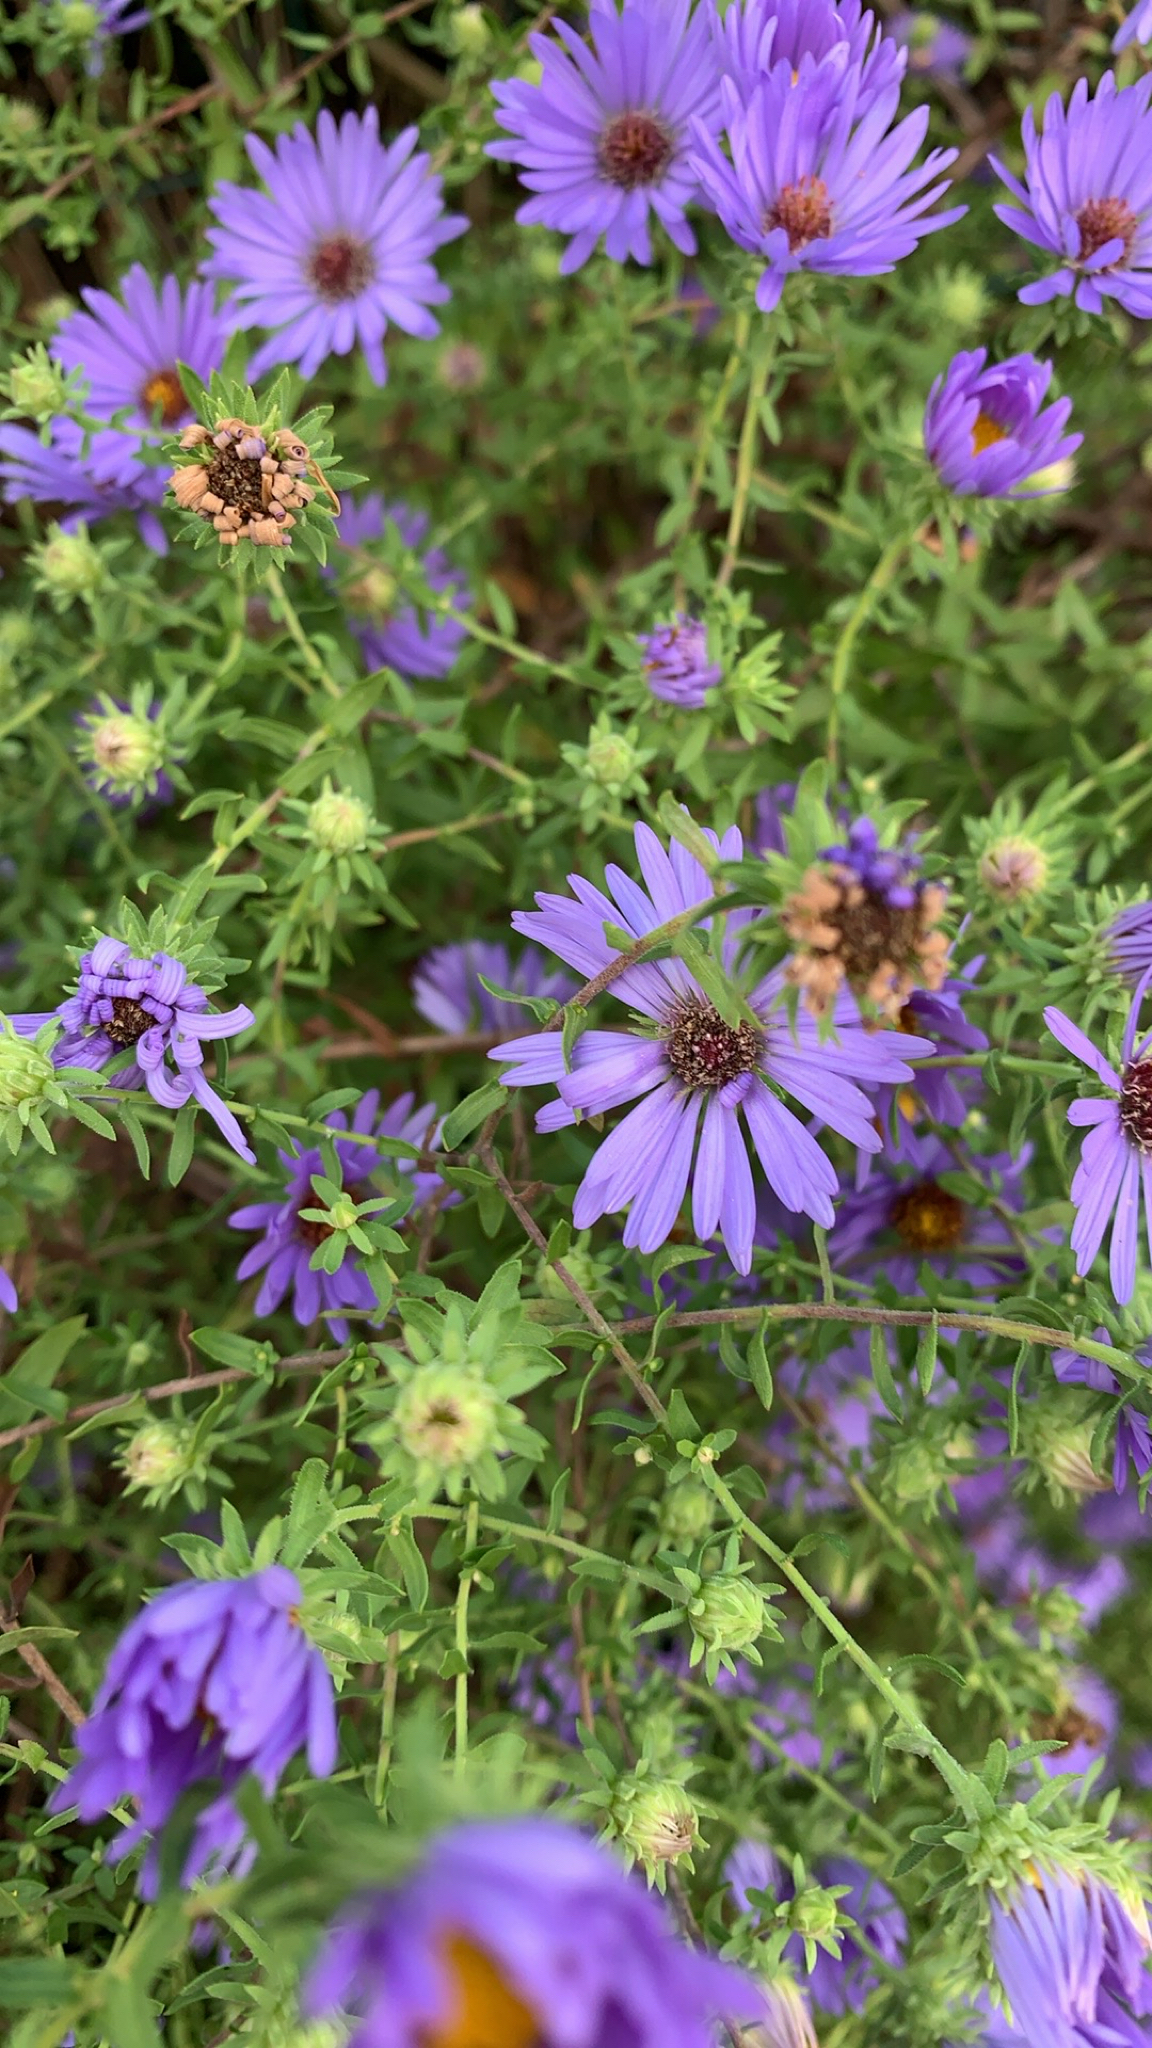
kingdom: Plantae
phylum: Tracheophyta
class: Magnoliopsida
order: Asterales
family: Asteraceae
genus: Symphyotrichum
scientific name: Symphyotrichum oblongifolium
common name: Aromatic aster
